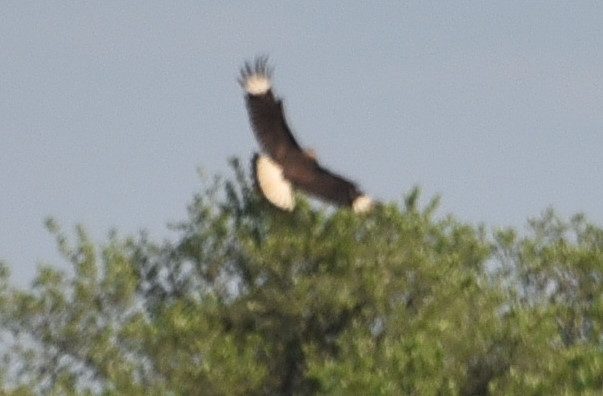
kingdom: Animalia
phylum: Chordata
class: Aves
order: Falconiformes
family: Falconidae
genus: Caracara
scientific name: Caracara plancus
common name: Southern caracara
